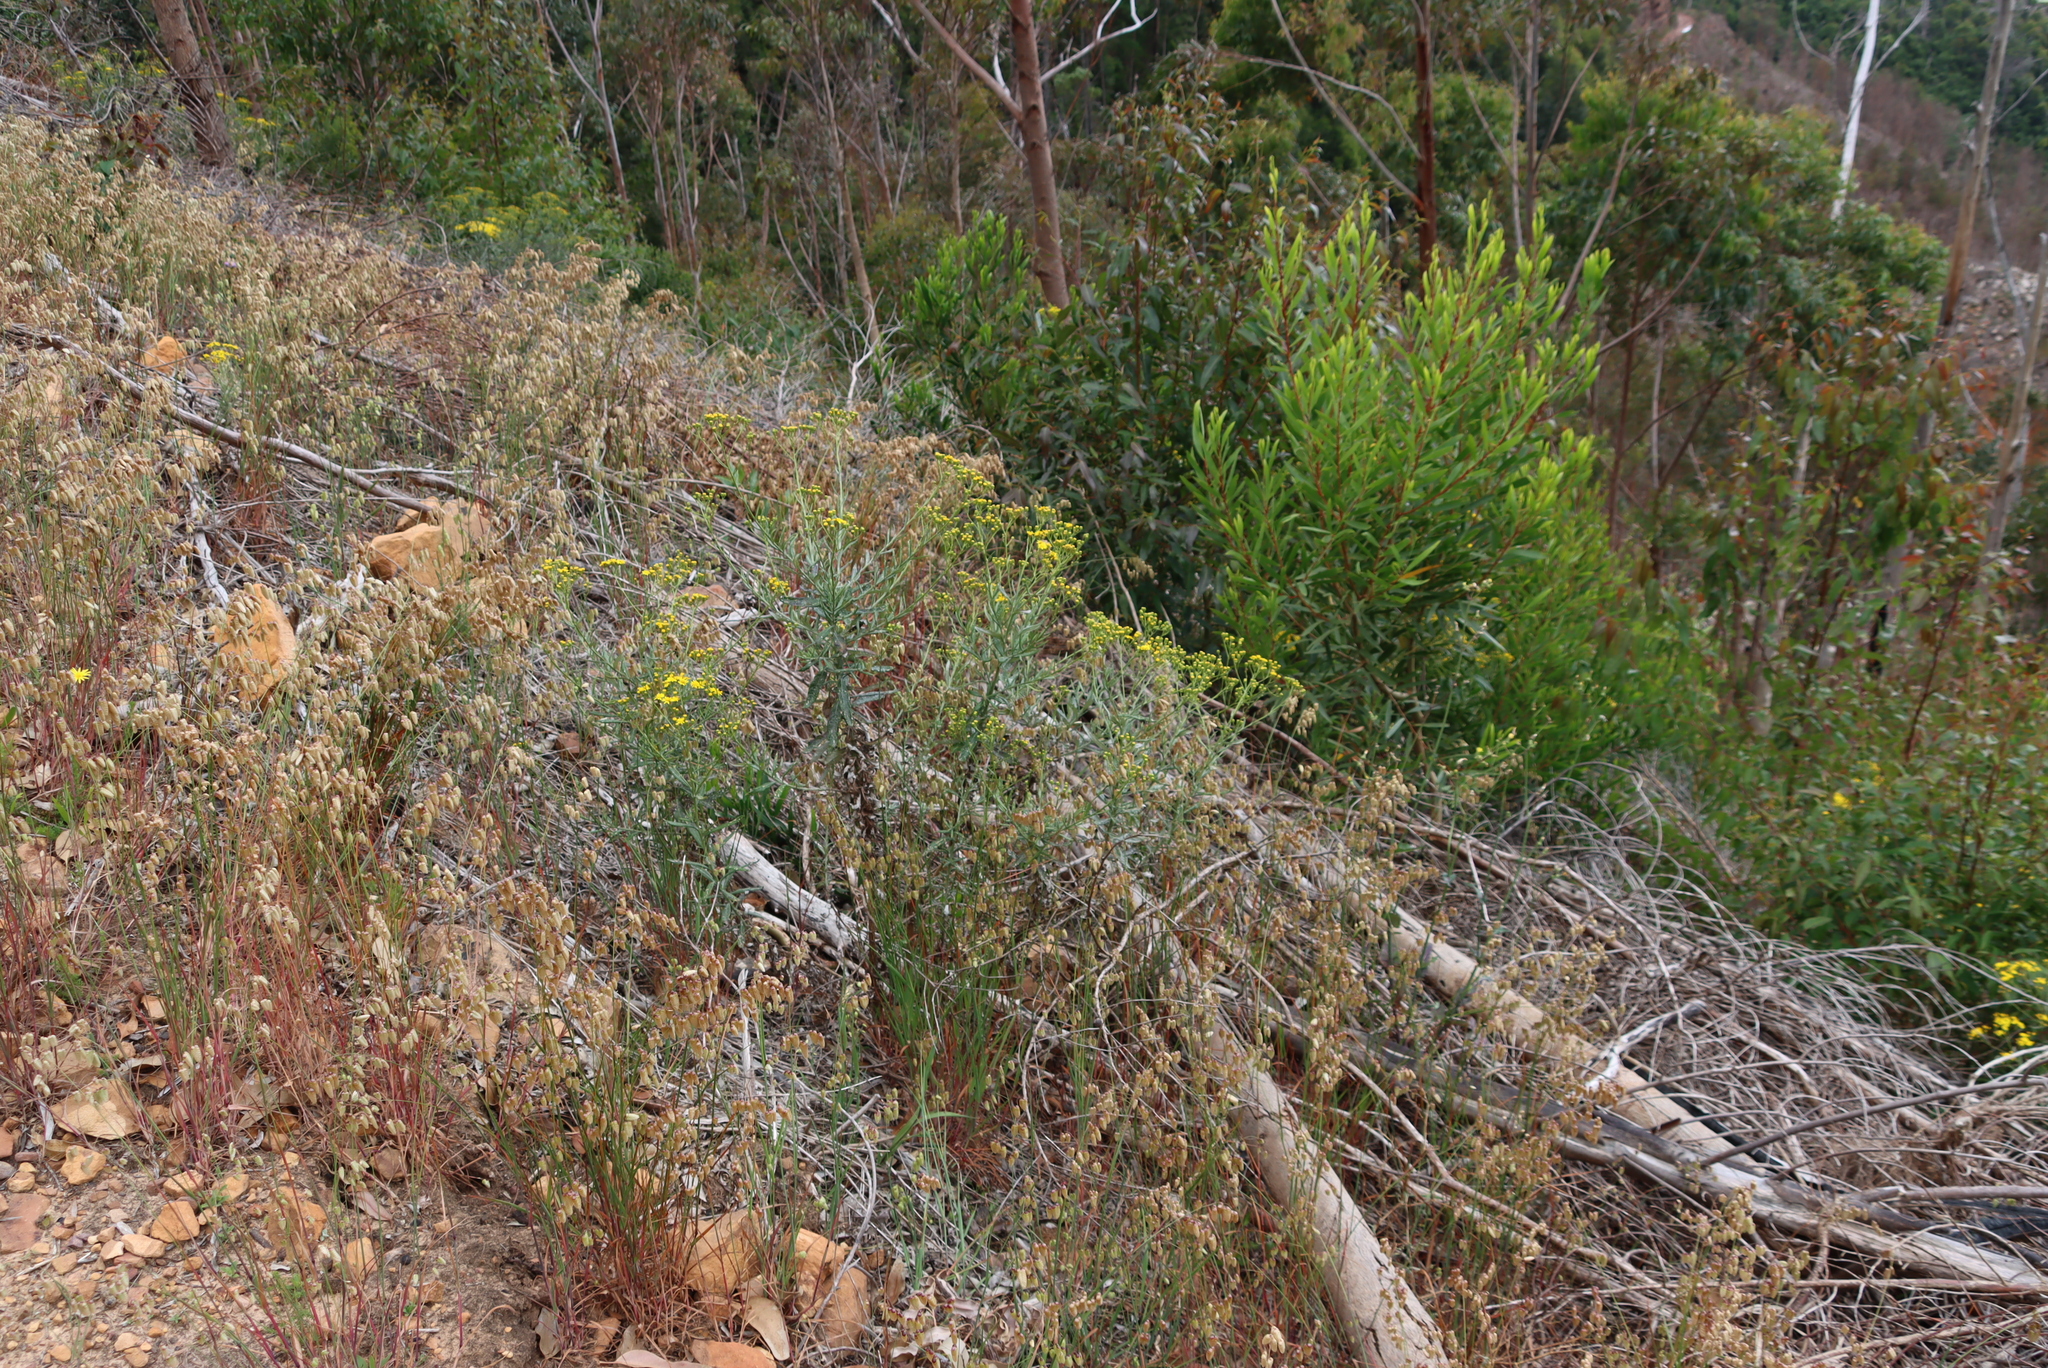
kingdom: Plantae
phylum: Tracheophyta
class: Magnoliopsida
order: Asterales
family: Asteraceae
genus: Senecio
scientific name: Senecio pterophorus
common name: Shoddy ragwort
